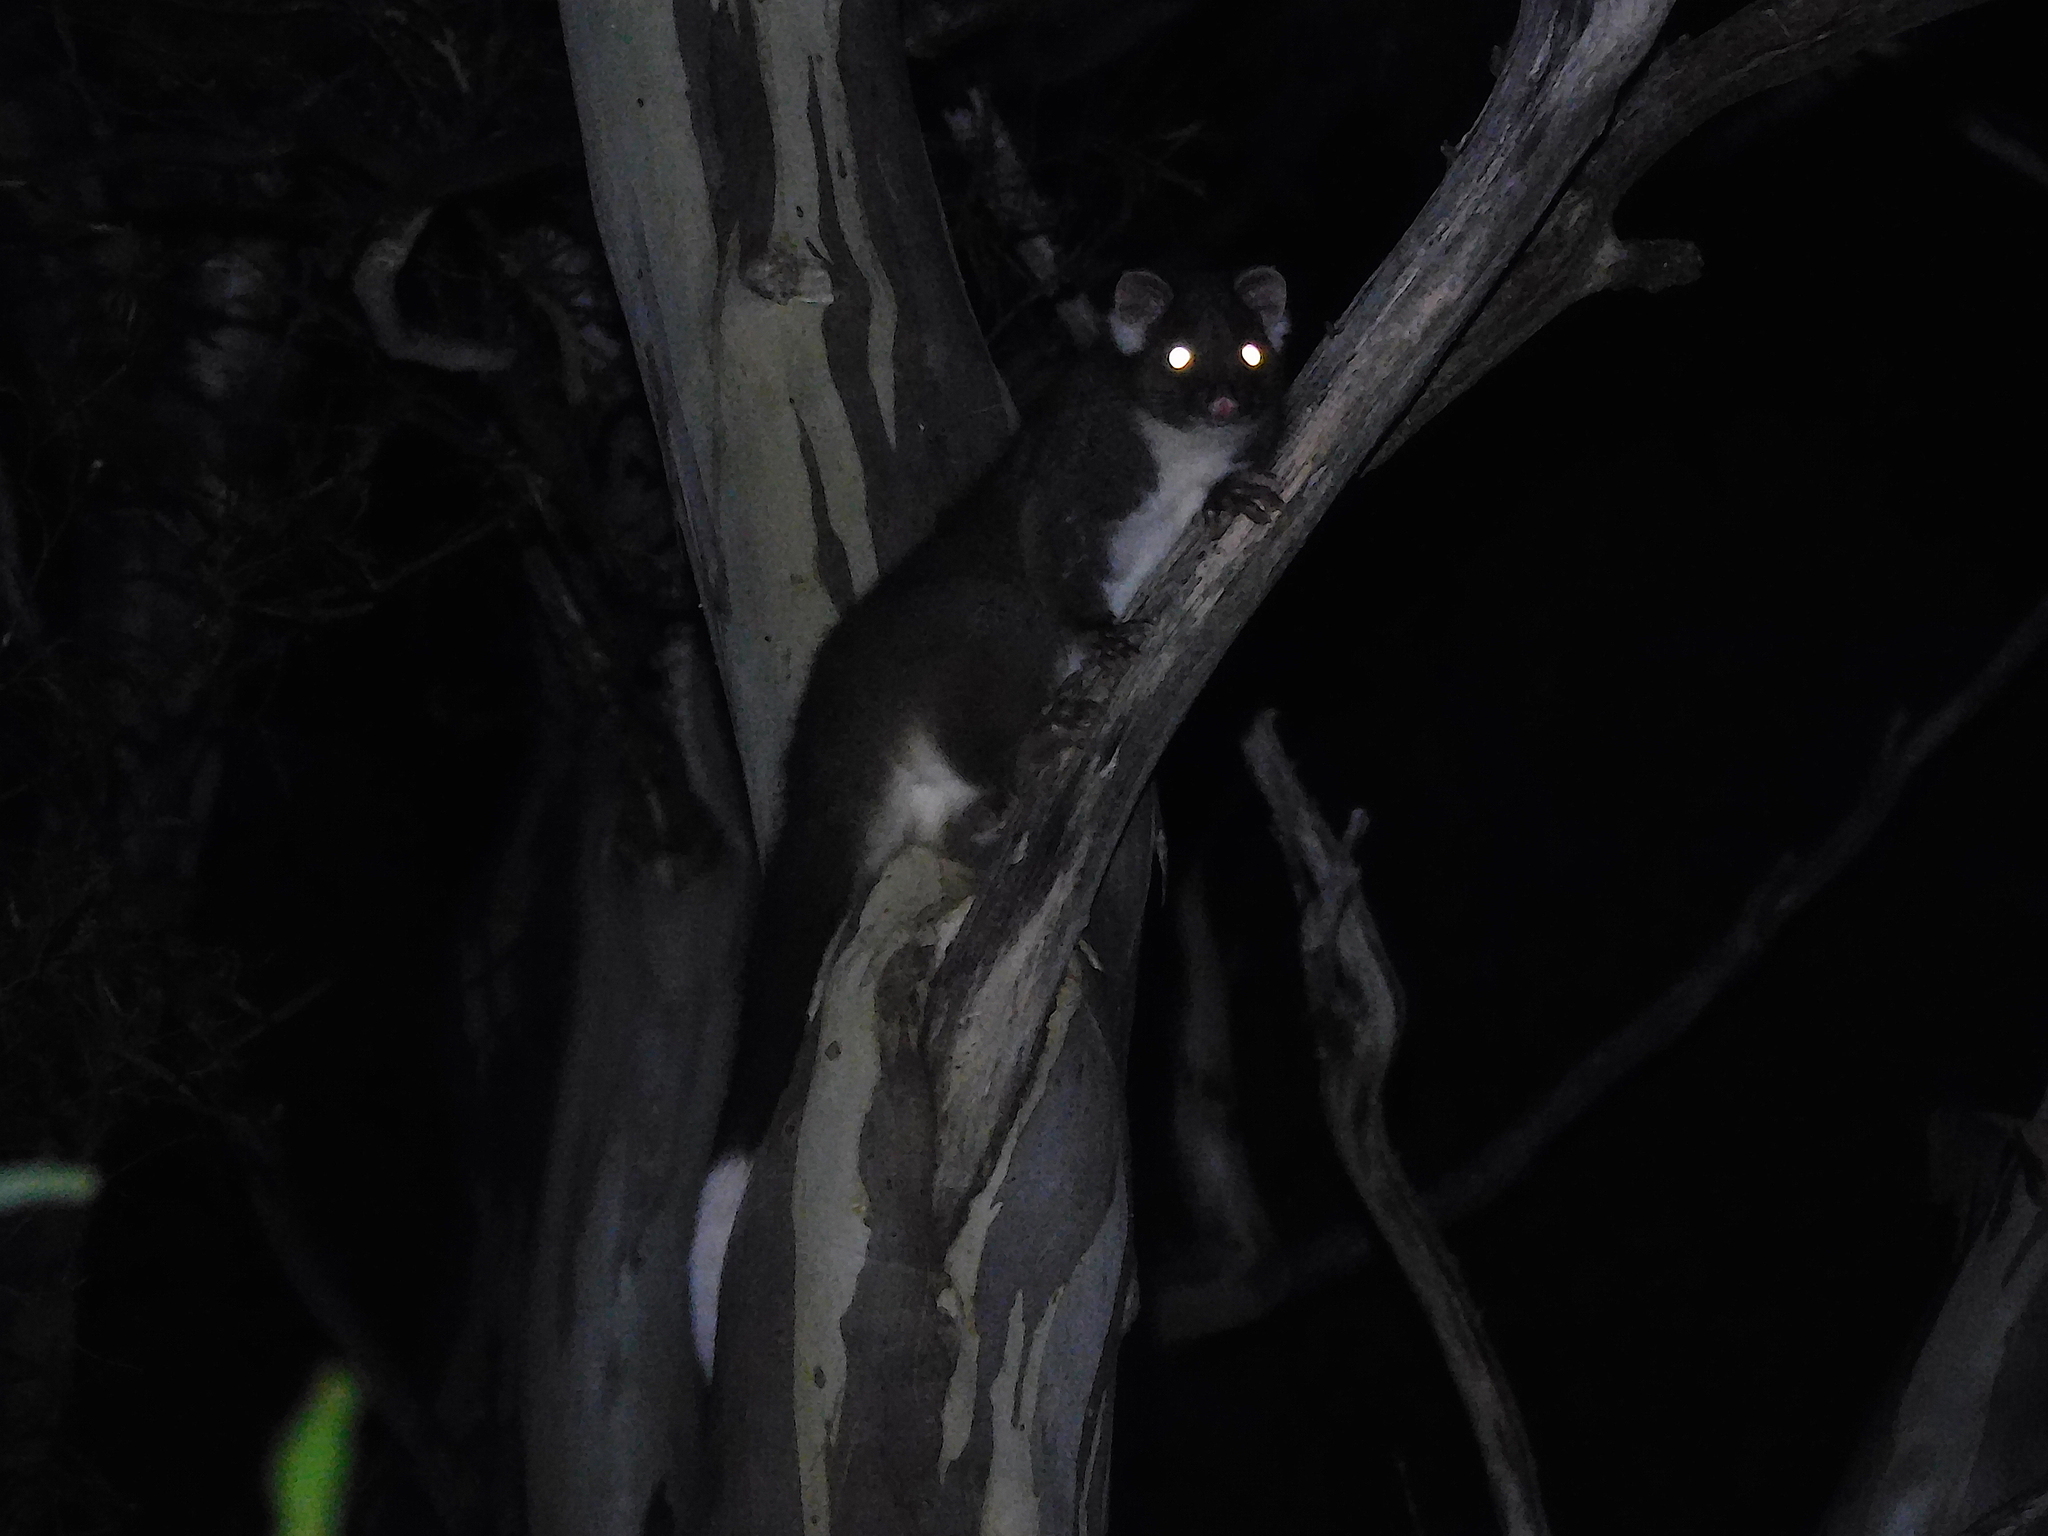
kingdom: Animalia
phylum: Chordata
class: Mammalia
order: Diprotodontia
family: Pseudocheiridae
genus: Pseudocheirus
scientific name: Pseudocheirus peregrinus
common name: Common ringtail possum
